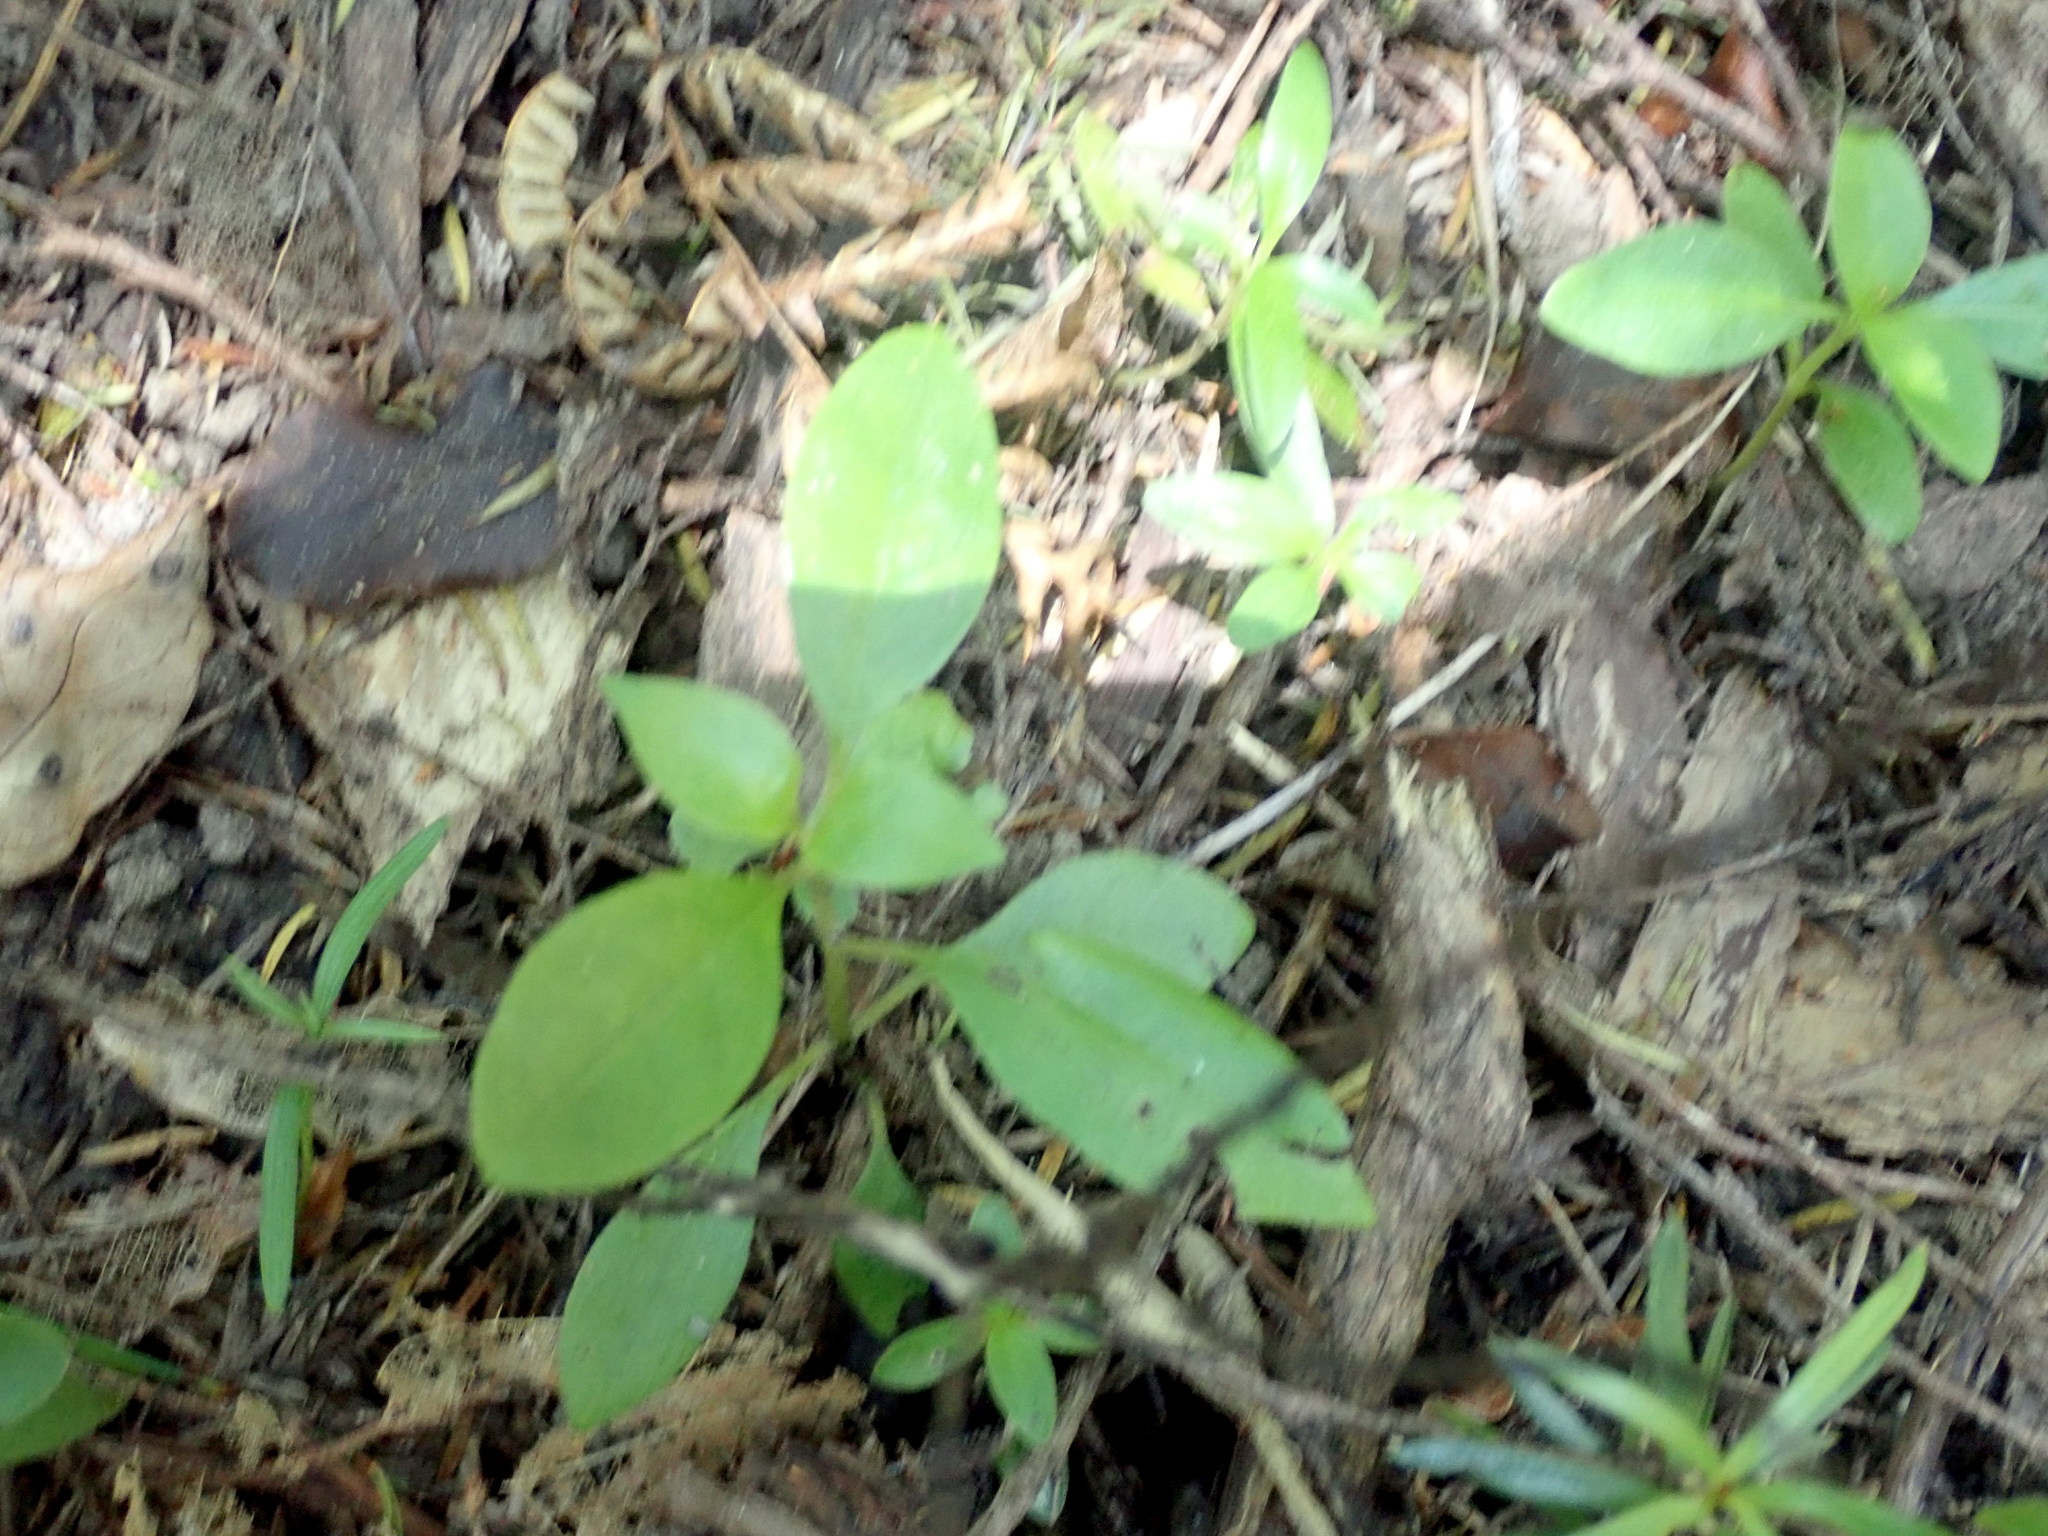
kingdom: Plantae
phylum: Tracheophyta
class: Magnoliopsida
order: Gentianales
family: Loganiaceae
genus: Geniostoma
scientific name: Geniostoma ligustrifolium
